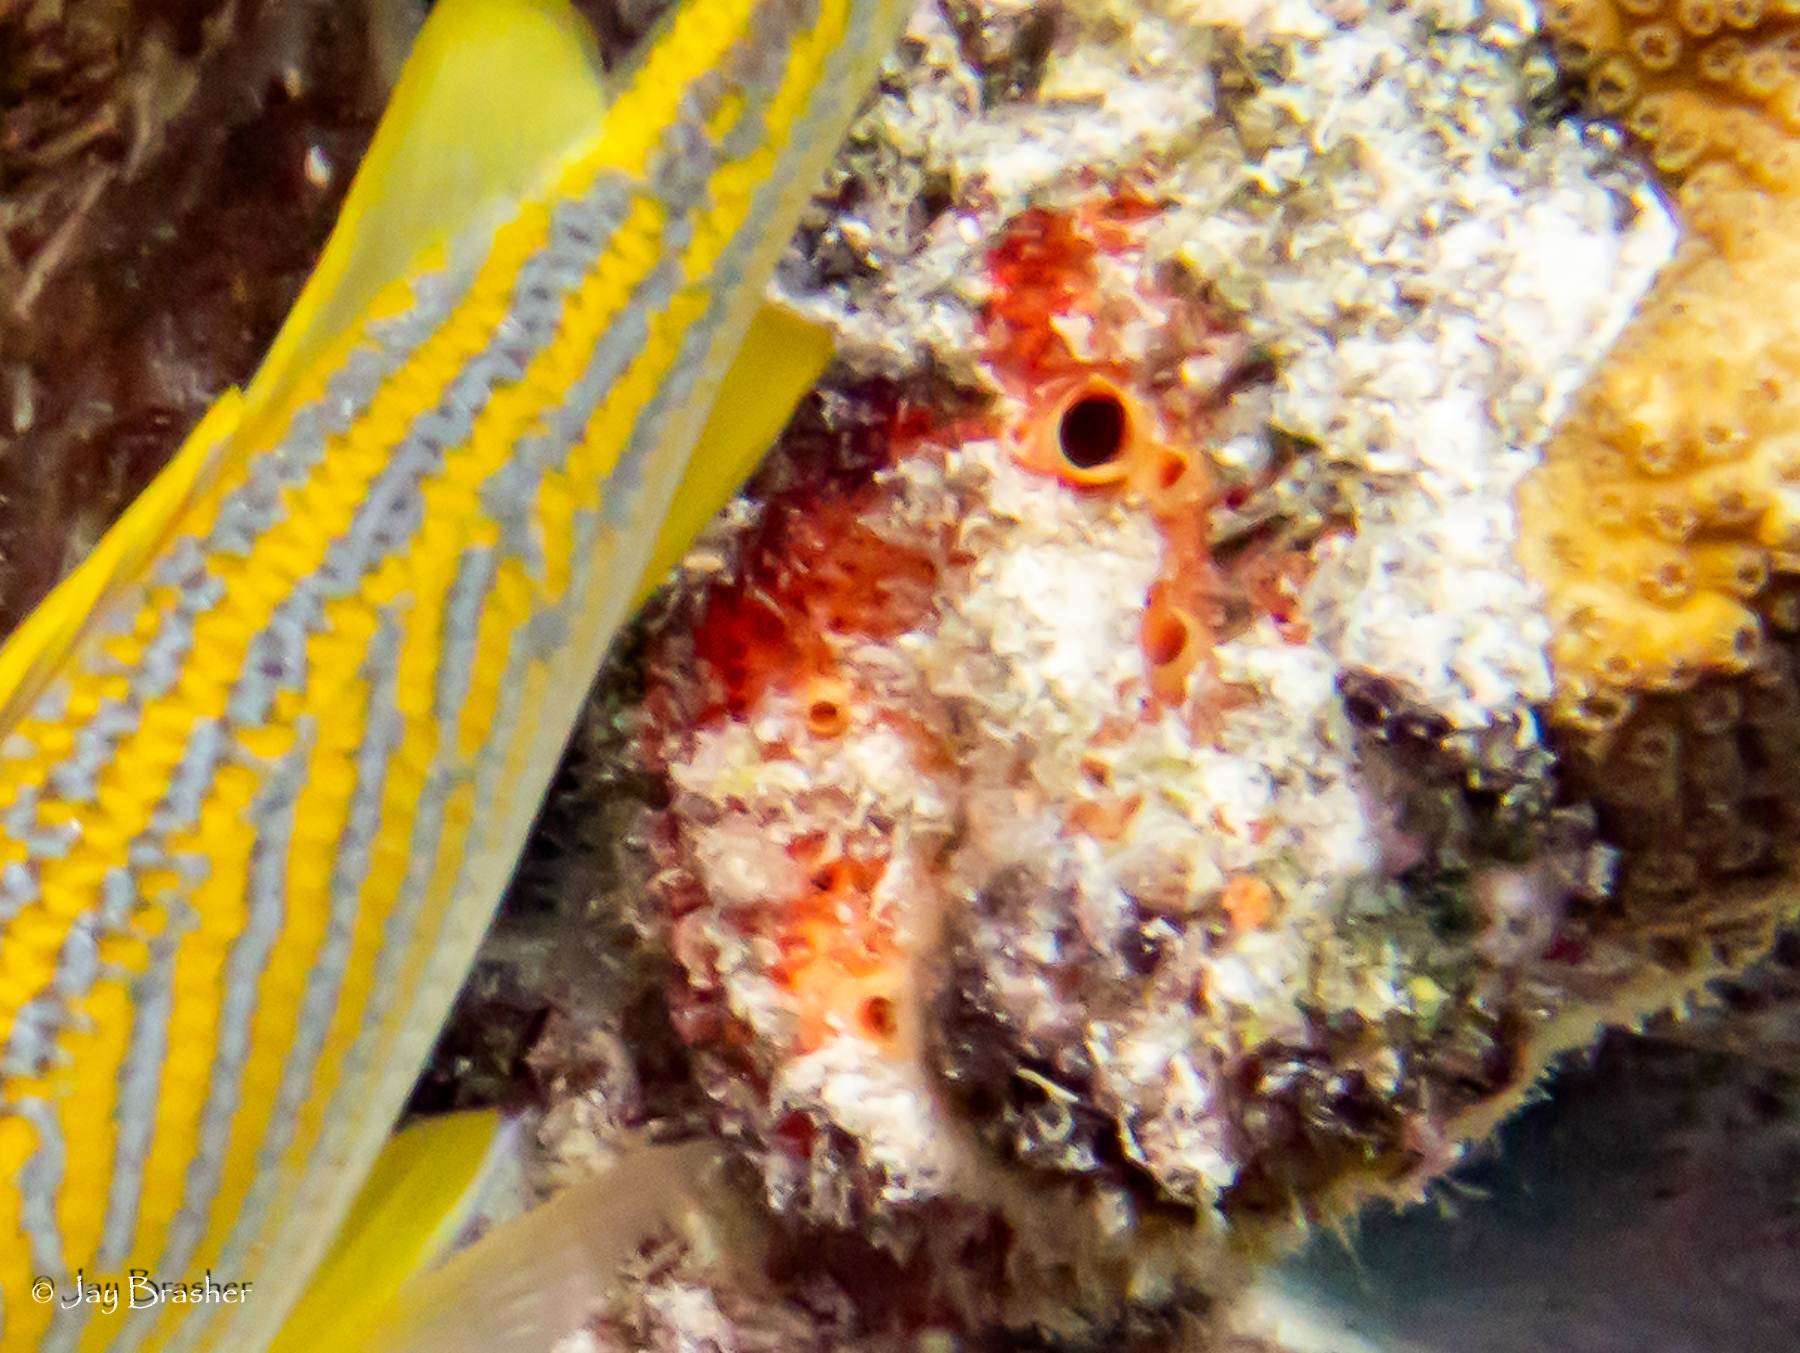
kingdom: Animalia
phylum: Porifera
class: Demospongiae
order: Clionaida
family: Clionaidae
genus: Cliothosa
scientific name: Cliothosa delitrix
